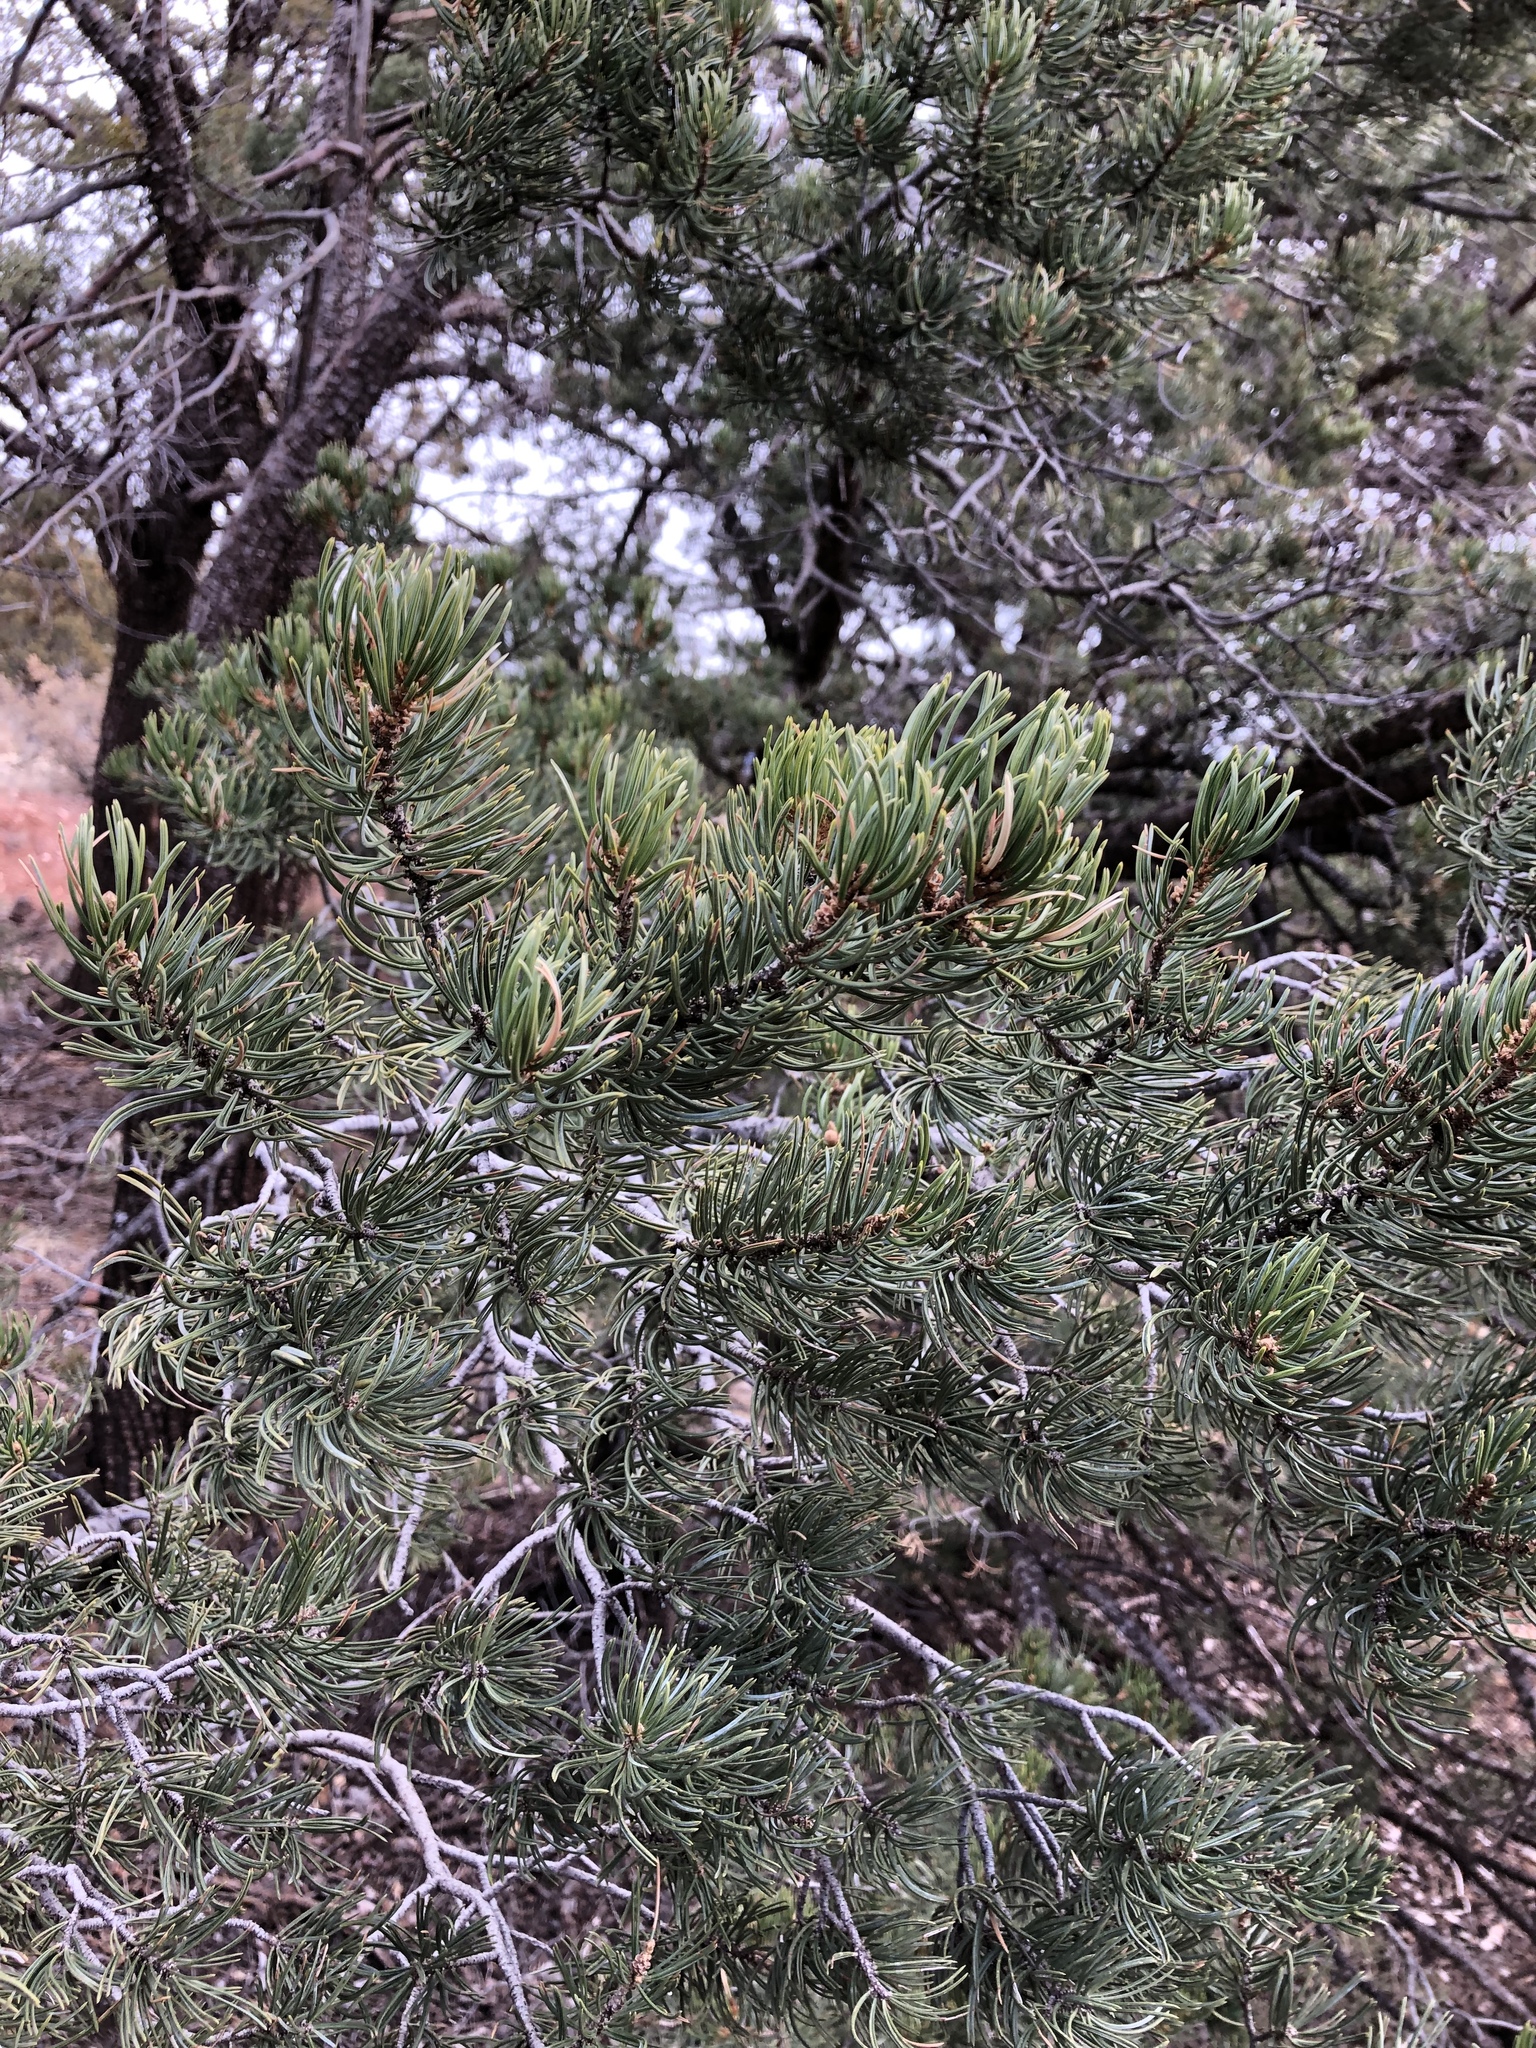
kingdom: Plantae
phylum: Tracheophyta
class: Pinopsida
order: Pinales
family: Pinaceae
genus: Pinus
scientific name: Pinus edulis
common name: Colorado pinyon
